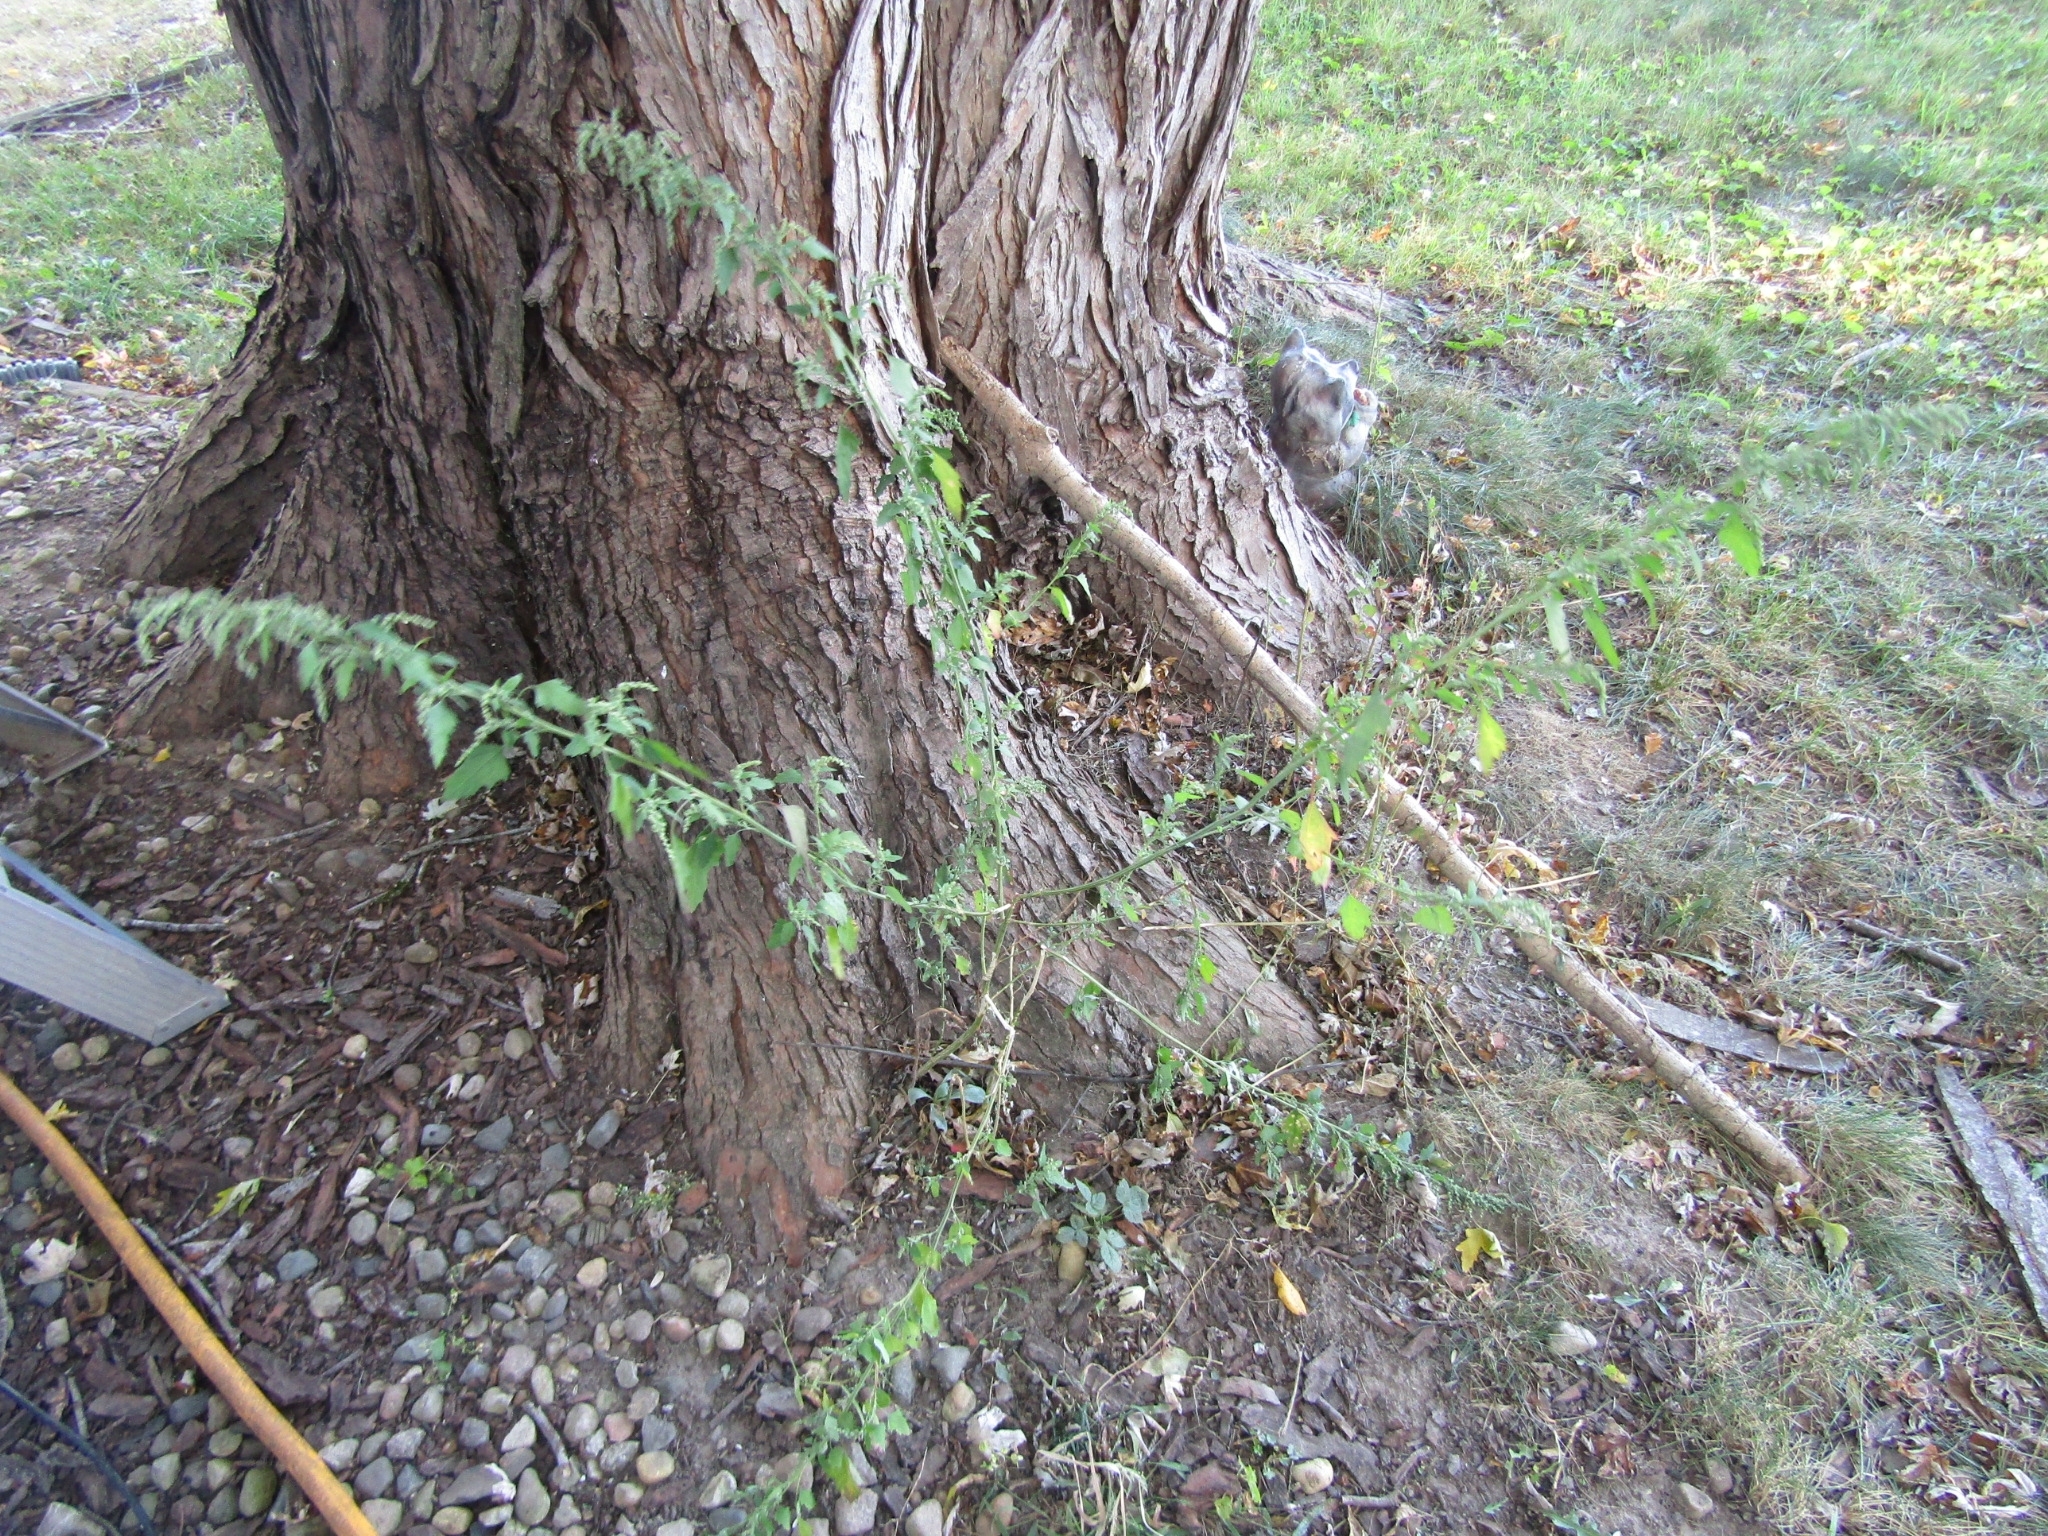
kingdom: Plantae
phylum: Tracheophyta
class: Magnoliopsida
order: Caryophyllales
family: Amaranthaceae
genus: Chenopodium
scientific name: Chenopodium album
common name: Fat-hen
